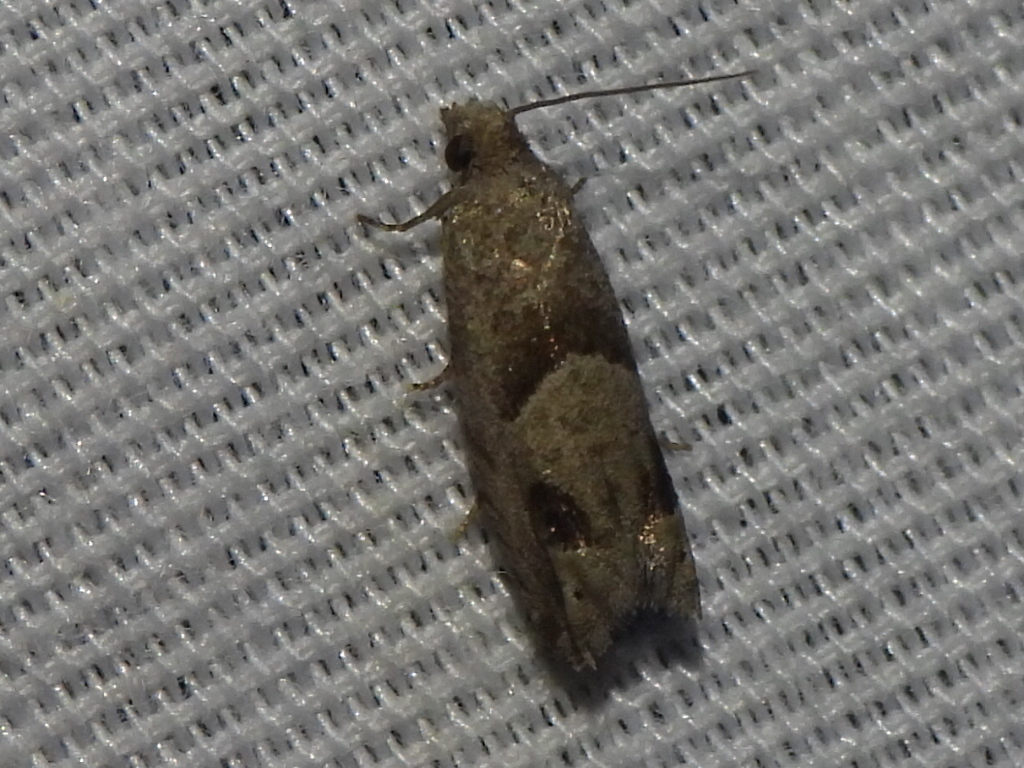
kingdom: Animalia
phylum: Arthropoda
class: Insecta
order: Lepidoptera
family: Tortricidae
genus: Suleima
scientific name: Suleima helianthana
